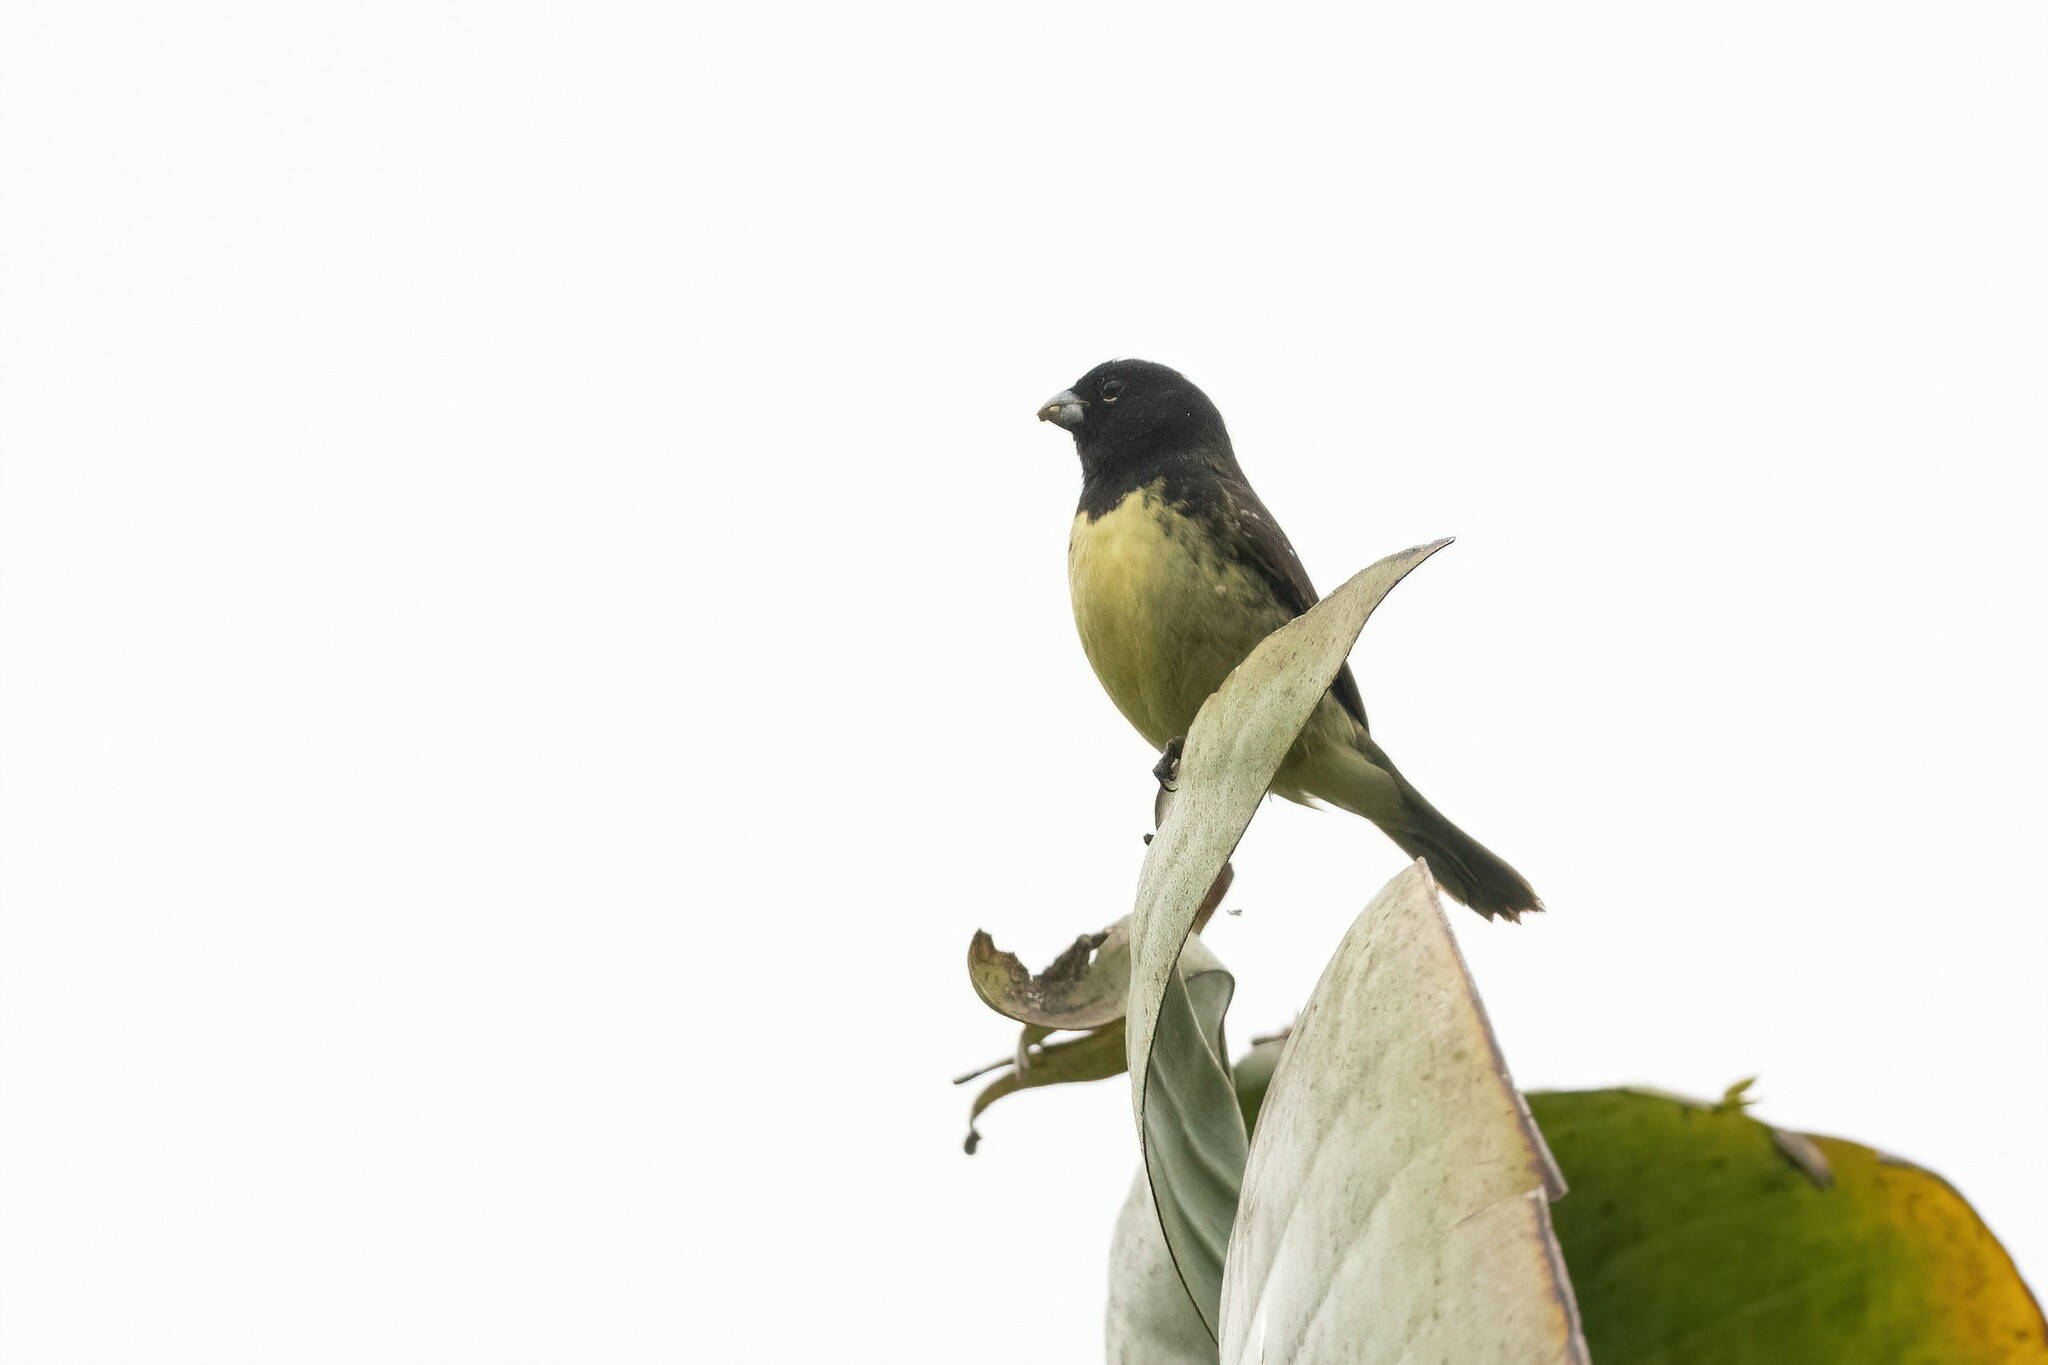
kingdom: Animalia
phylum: Chordata
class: Aves
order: Passeriformes
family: Thraupidae
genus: Sporophila
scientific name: Sporophila nigricollis
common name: Yellow-bellied seedeater
